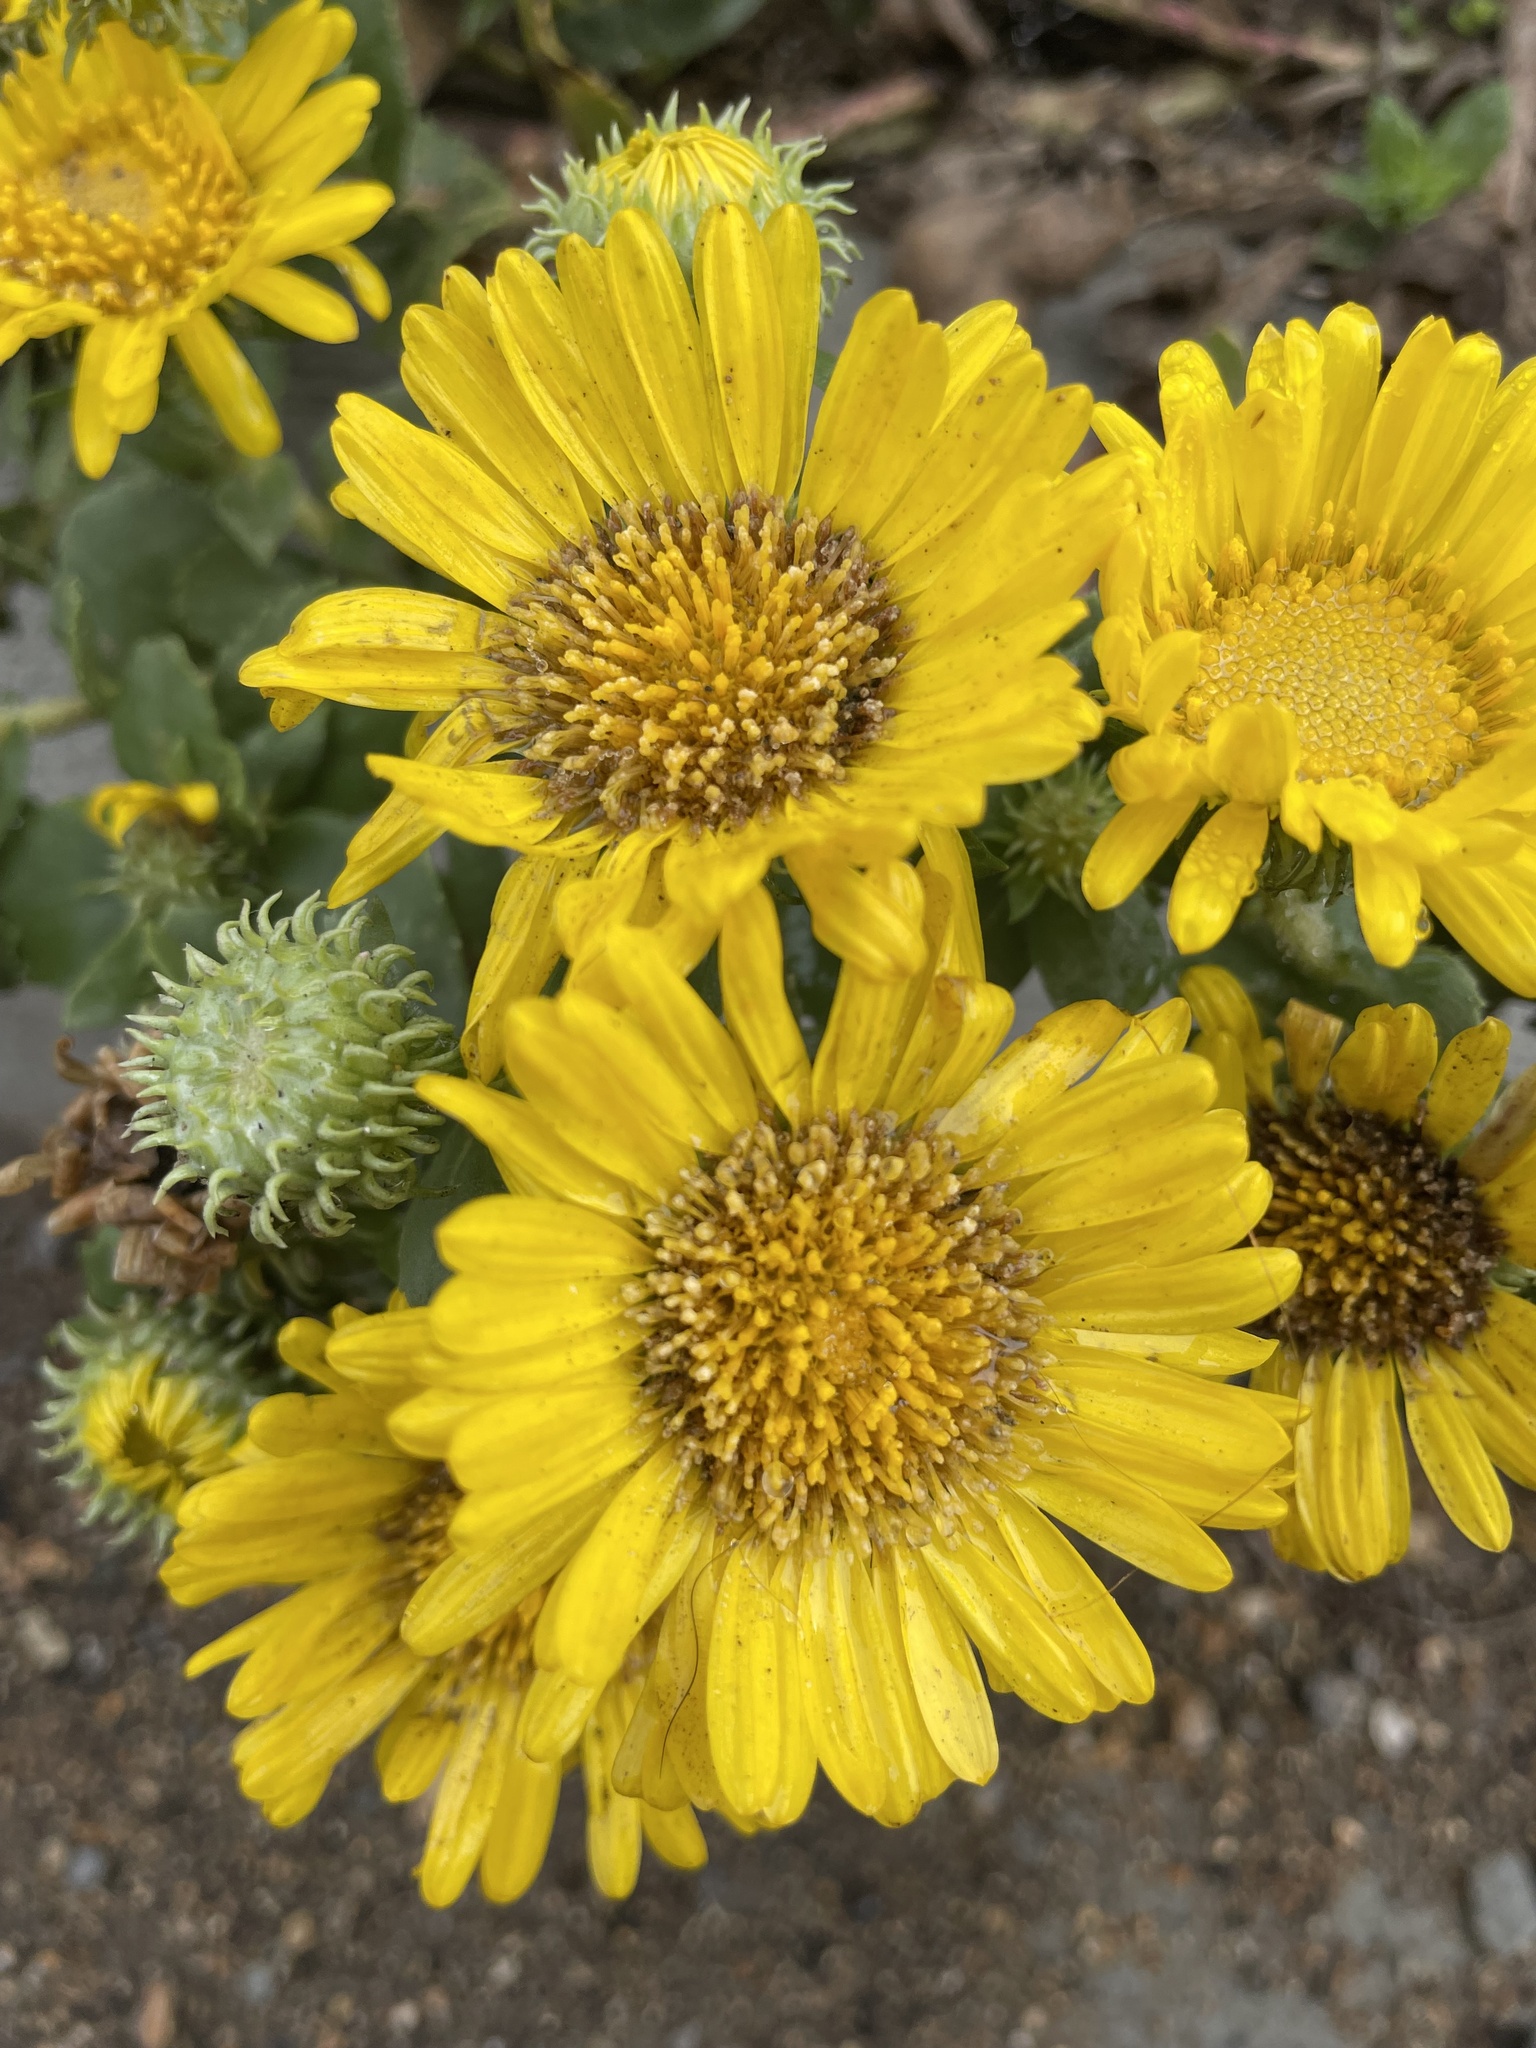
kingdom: Plantae
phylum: Tracheophyta
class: Magnoliopsida
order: Asterales
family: Asteraceae
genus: Grindelia
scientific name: Grindelia hirsutula
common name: Hairy gumweed
